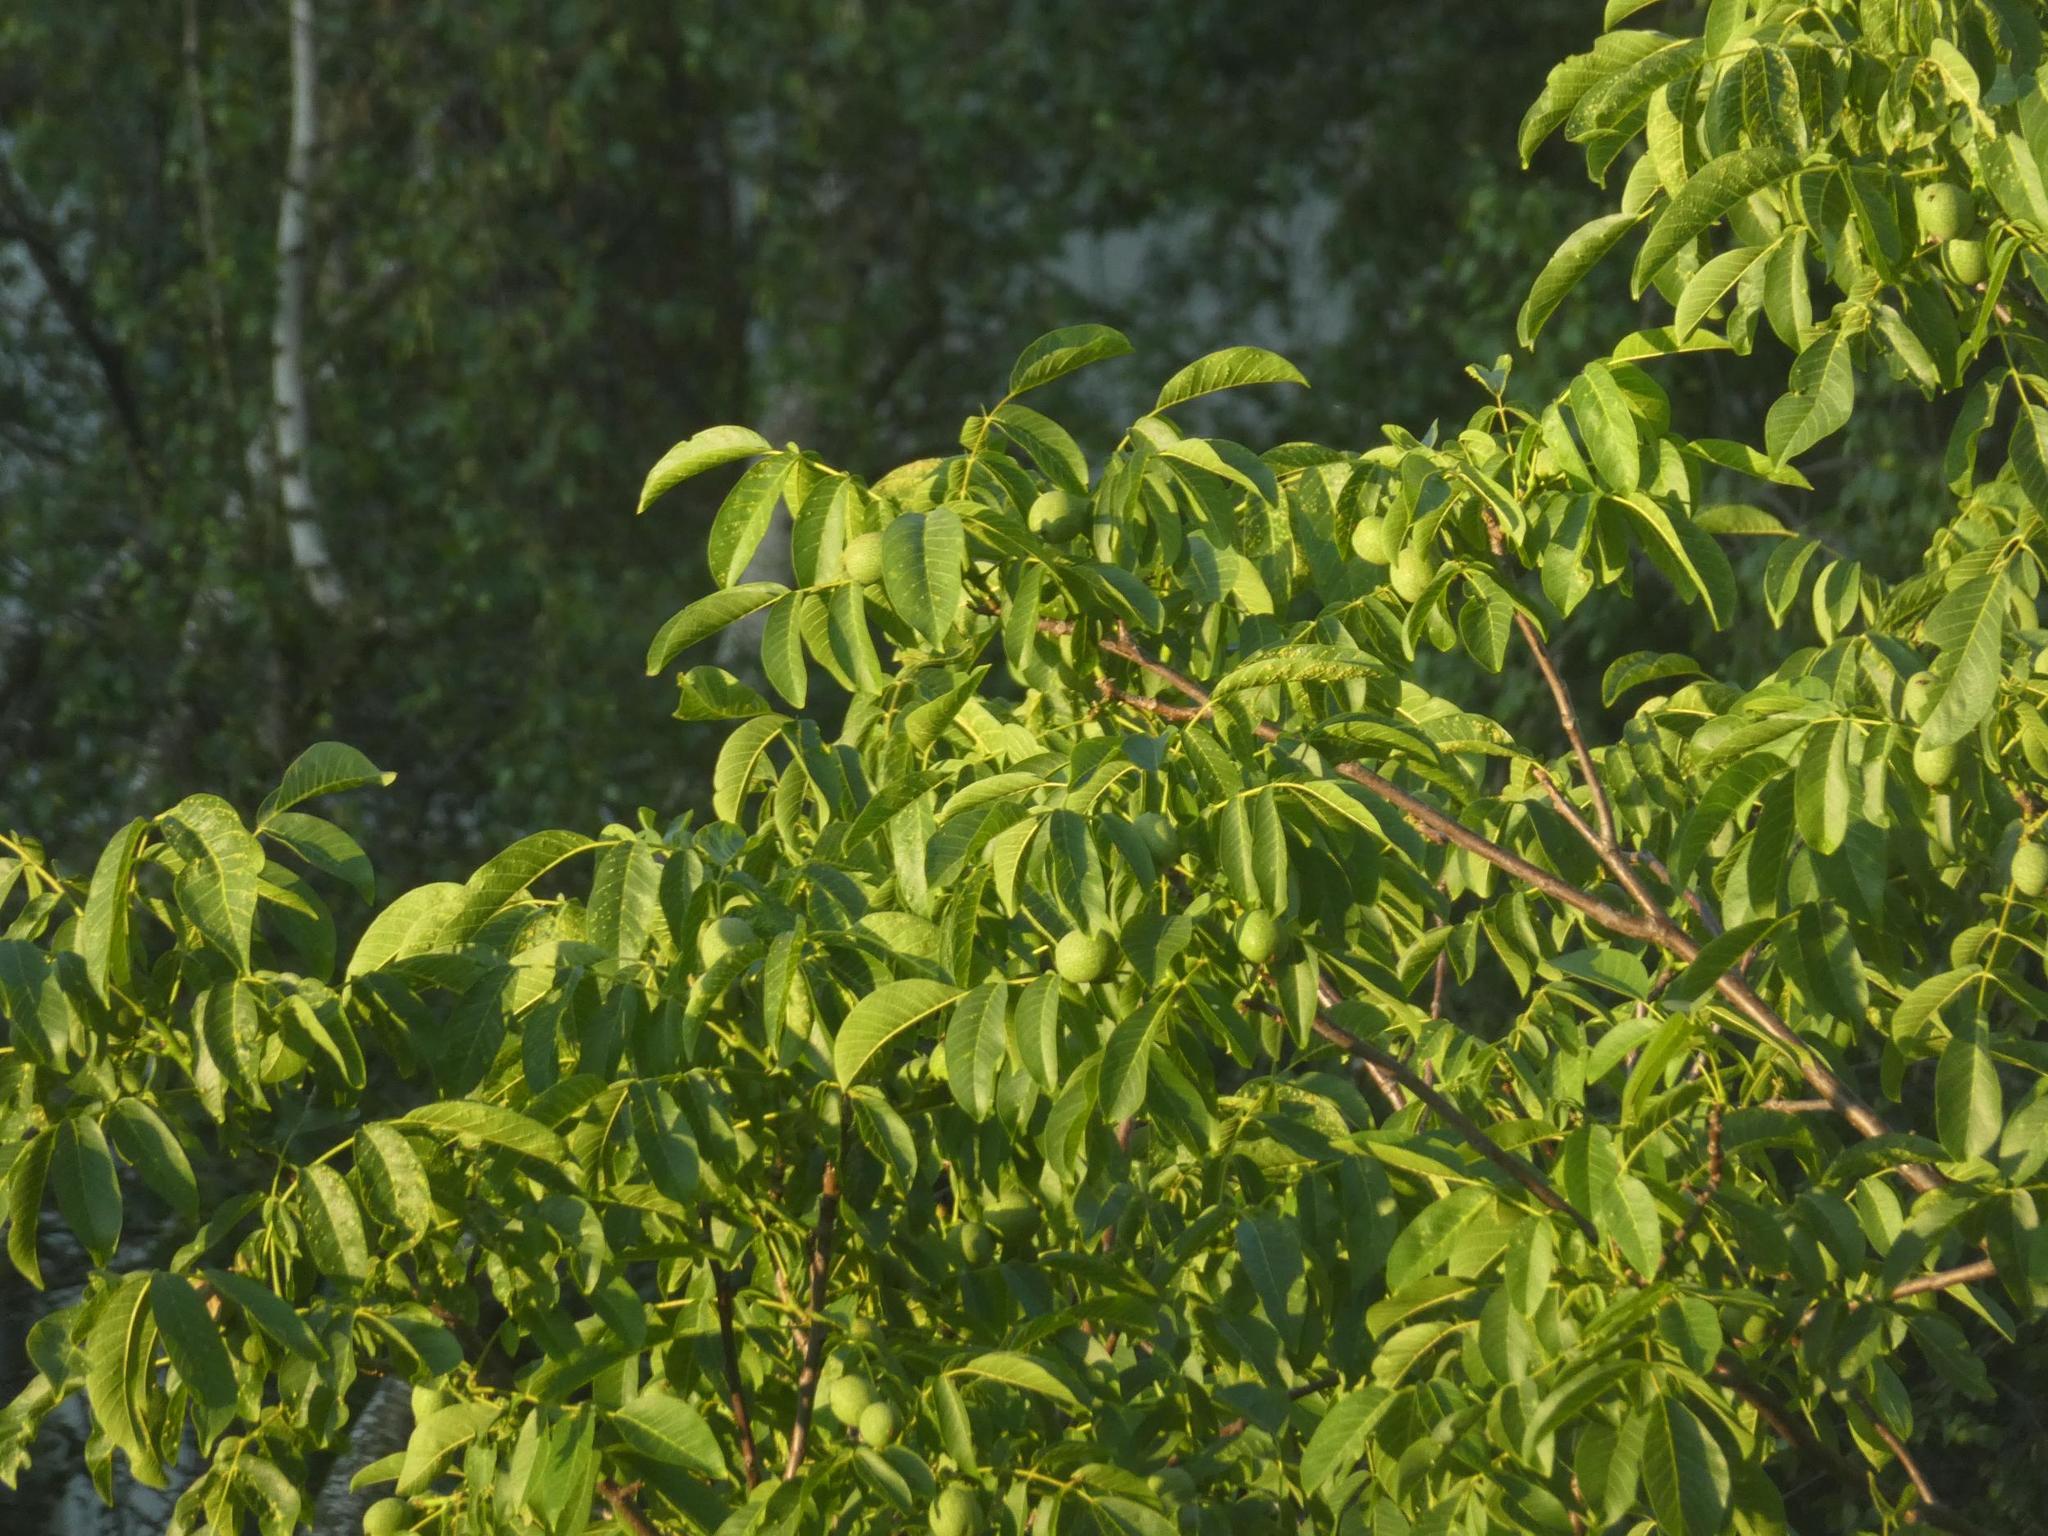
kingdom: Plantae
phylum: Tracheophyta
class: Magnoliopsida
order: Fagales
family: Juglandaceae
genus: Juglans
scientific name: Juglans regia
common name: Walnut
